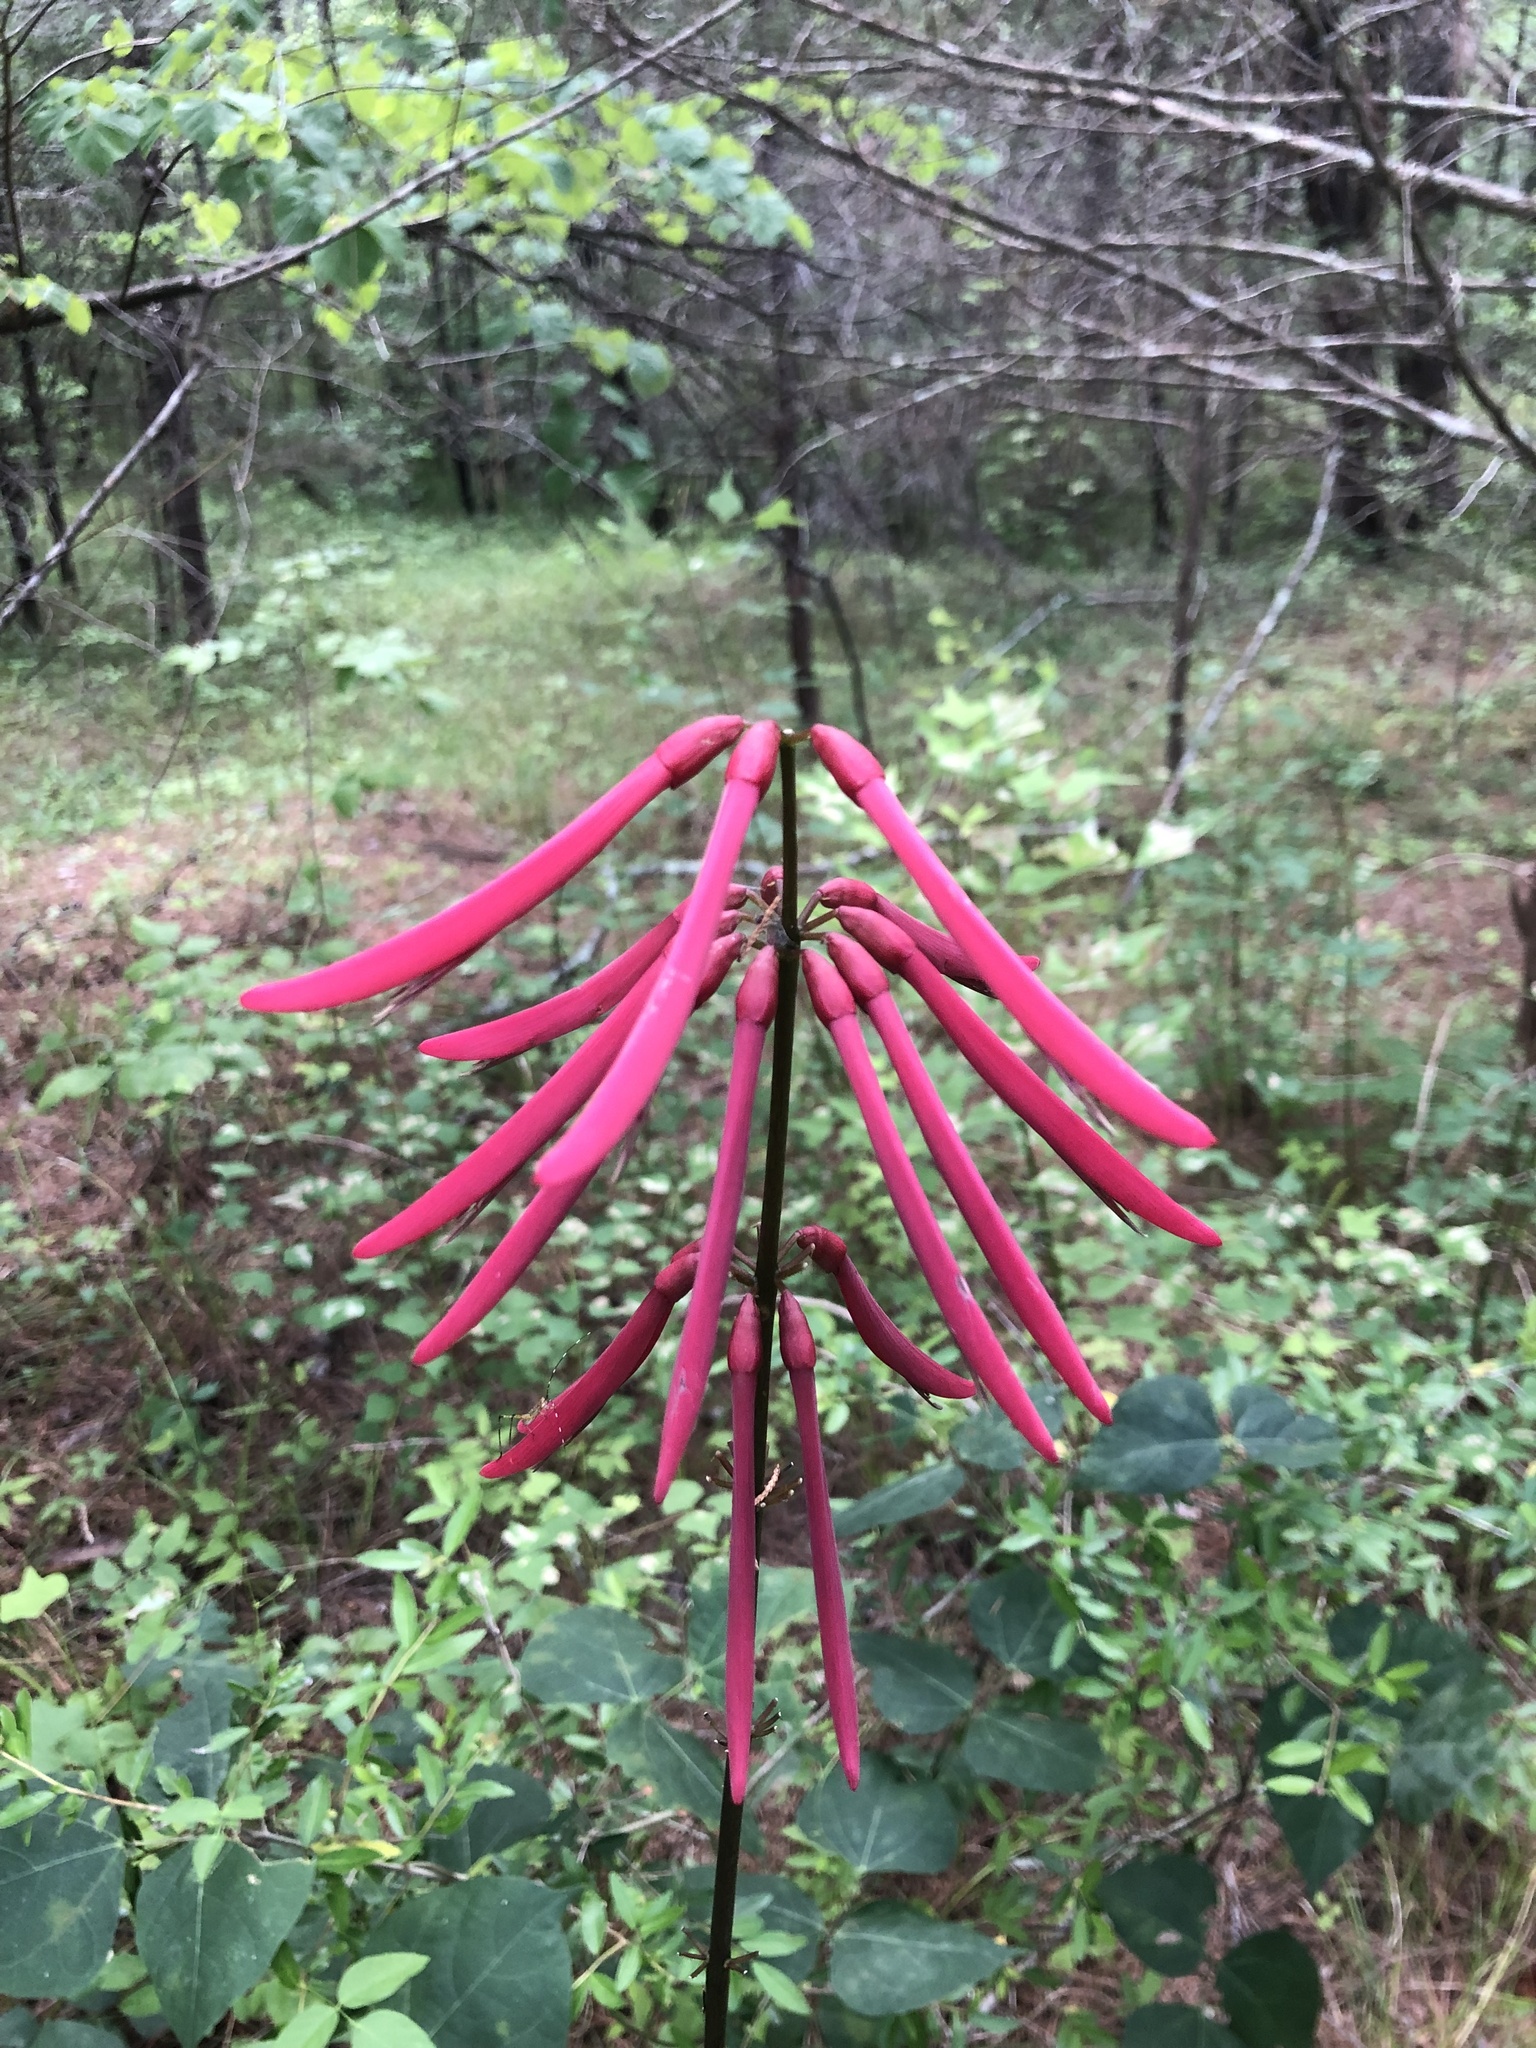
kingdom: Plantae
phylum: Tracheophyta
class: Magnoliopsida
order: Fabales
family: Fabaceae
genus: Erythrina
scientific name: Erythrina herbacea
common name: Coral-bean
